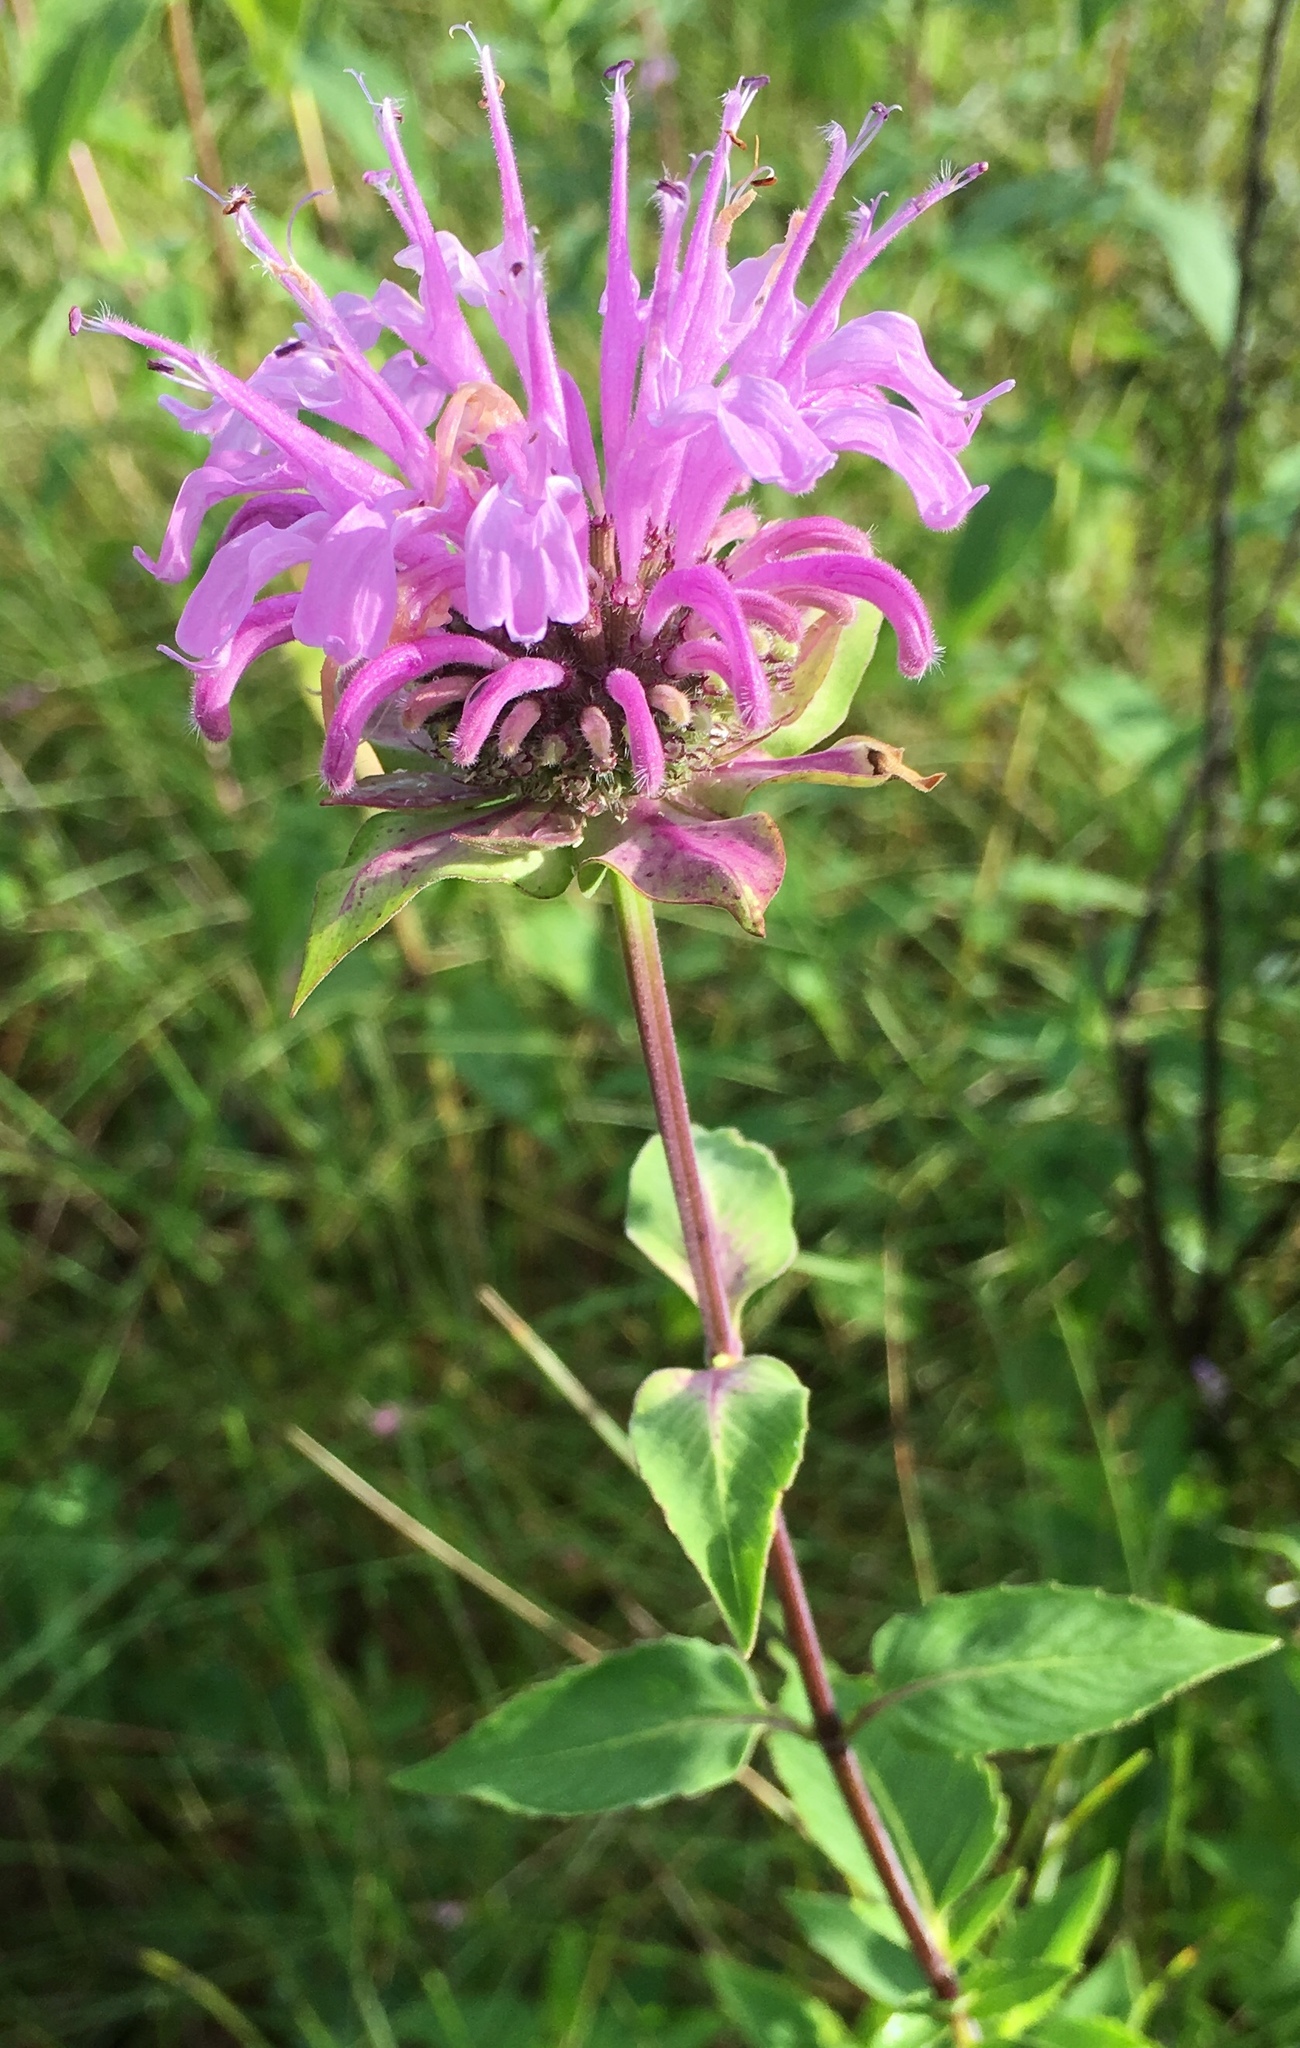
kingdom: Plantae
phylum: Tracheophyta
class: Magnoliopsida
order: Lamiales
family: Lamiaceae
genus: Monarda
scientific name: Monarda fistulosa
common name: Purple beebalm
